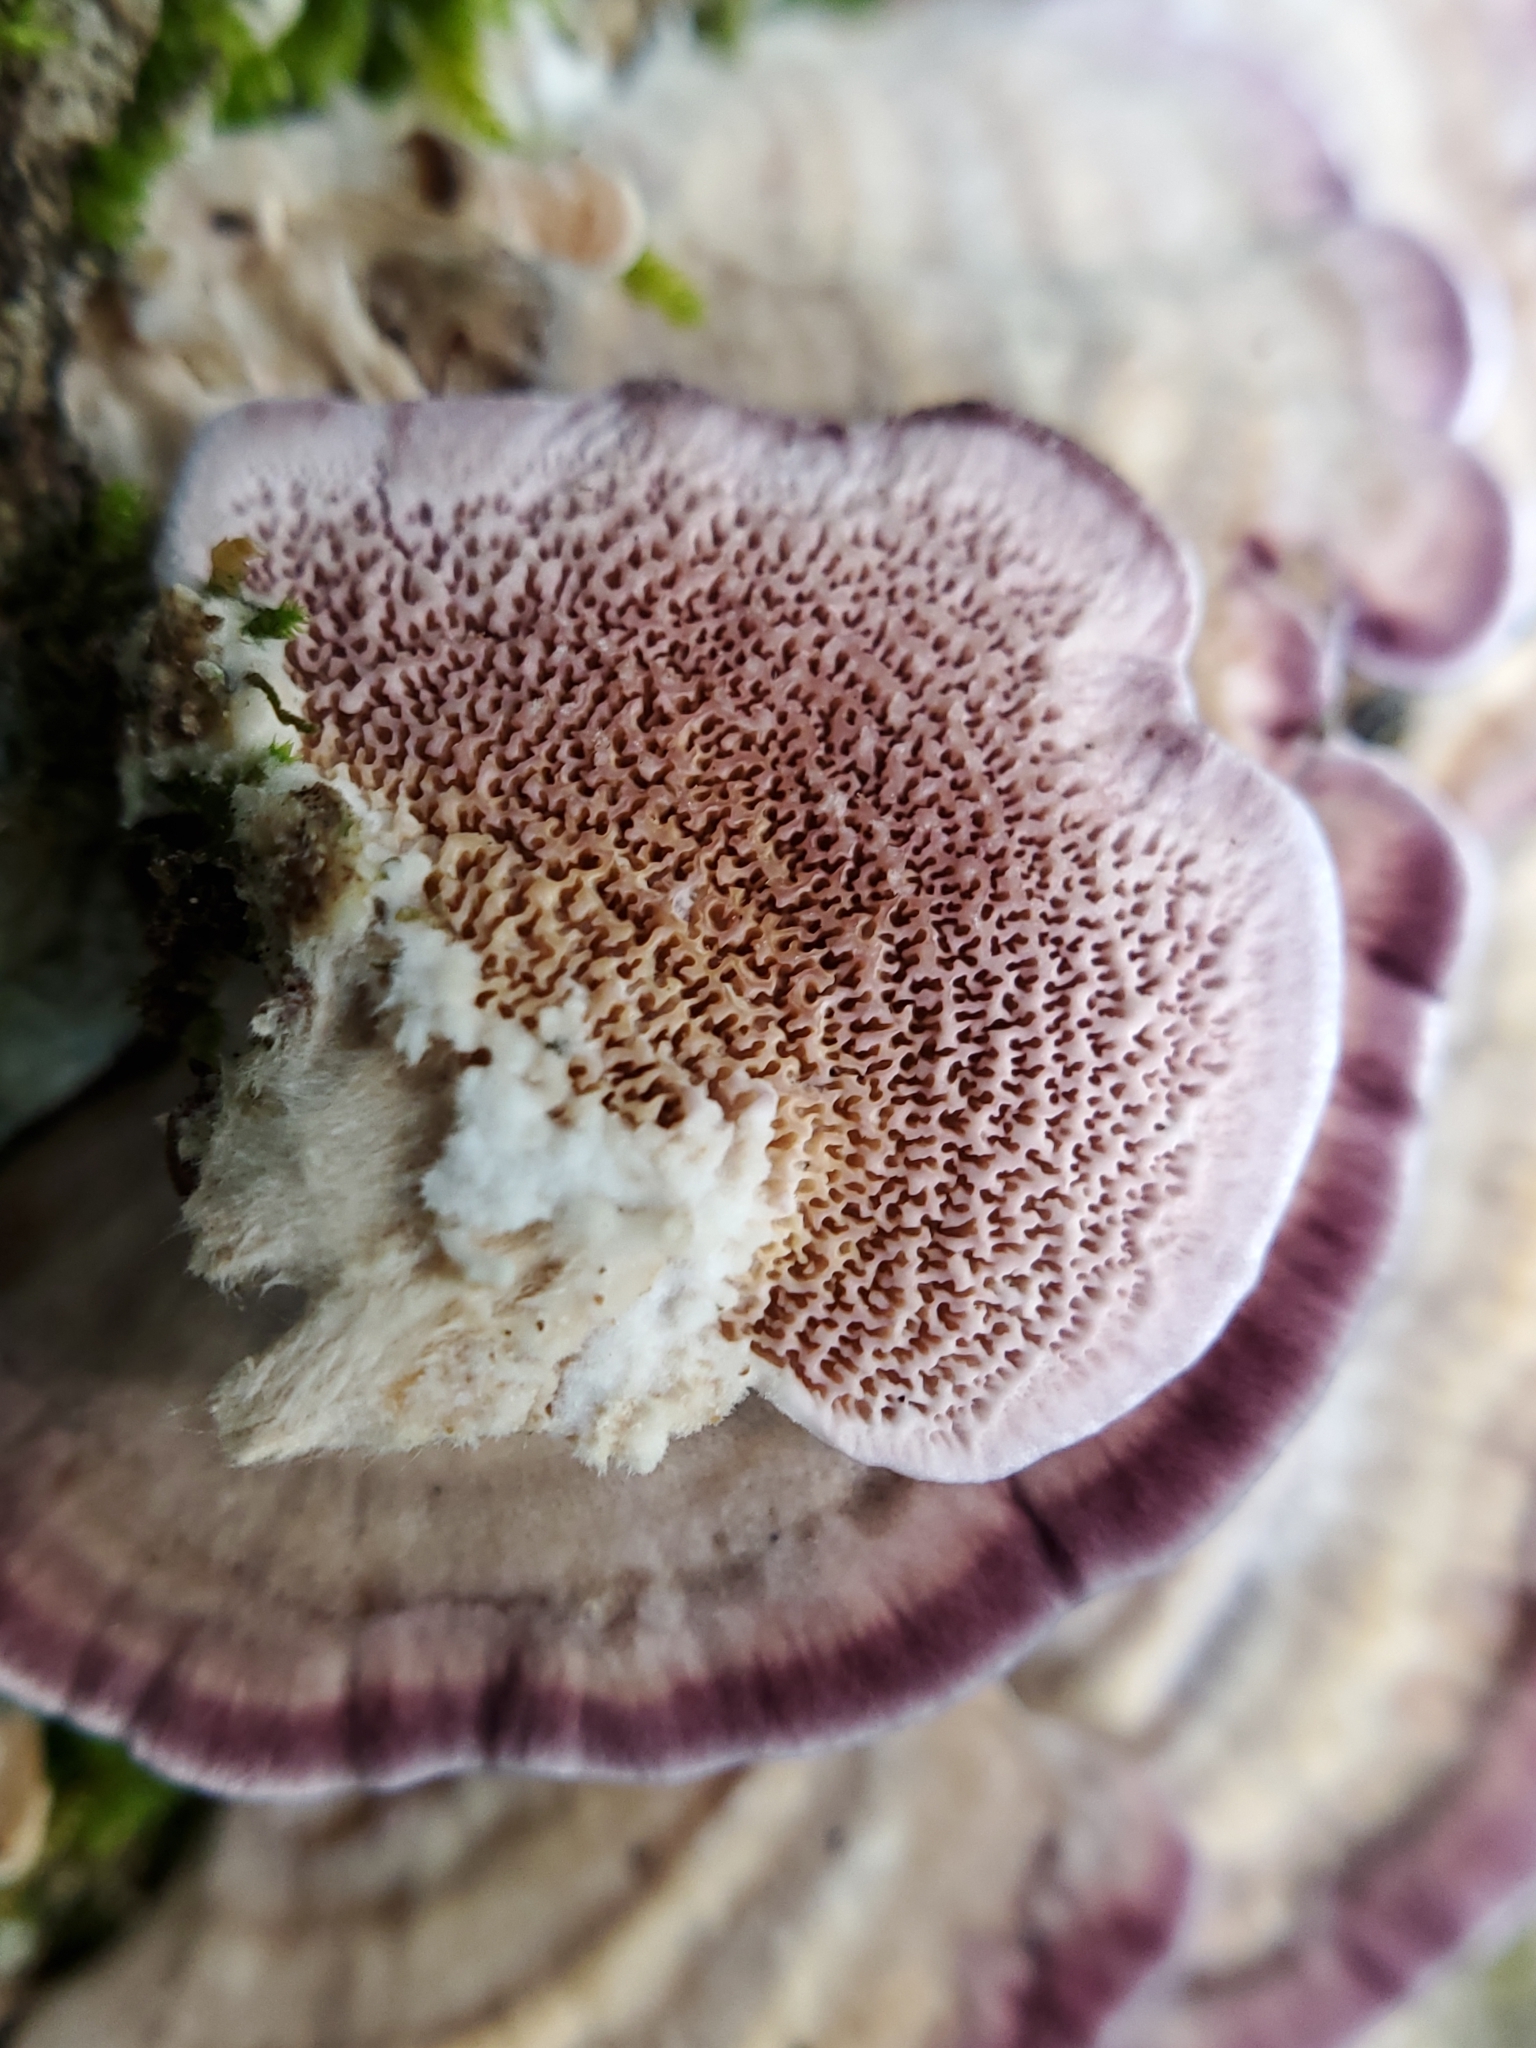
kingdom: Fungi
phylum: Basidiomycota
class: Agaricomycetes
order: Hymenochaetales
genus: Trichaptum
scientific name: Trichaptum biforme
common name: Violet-toothed polypore
